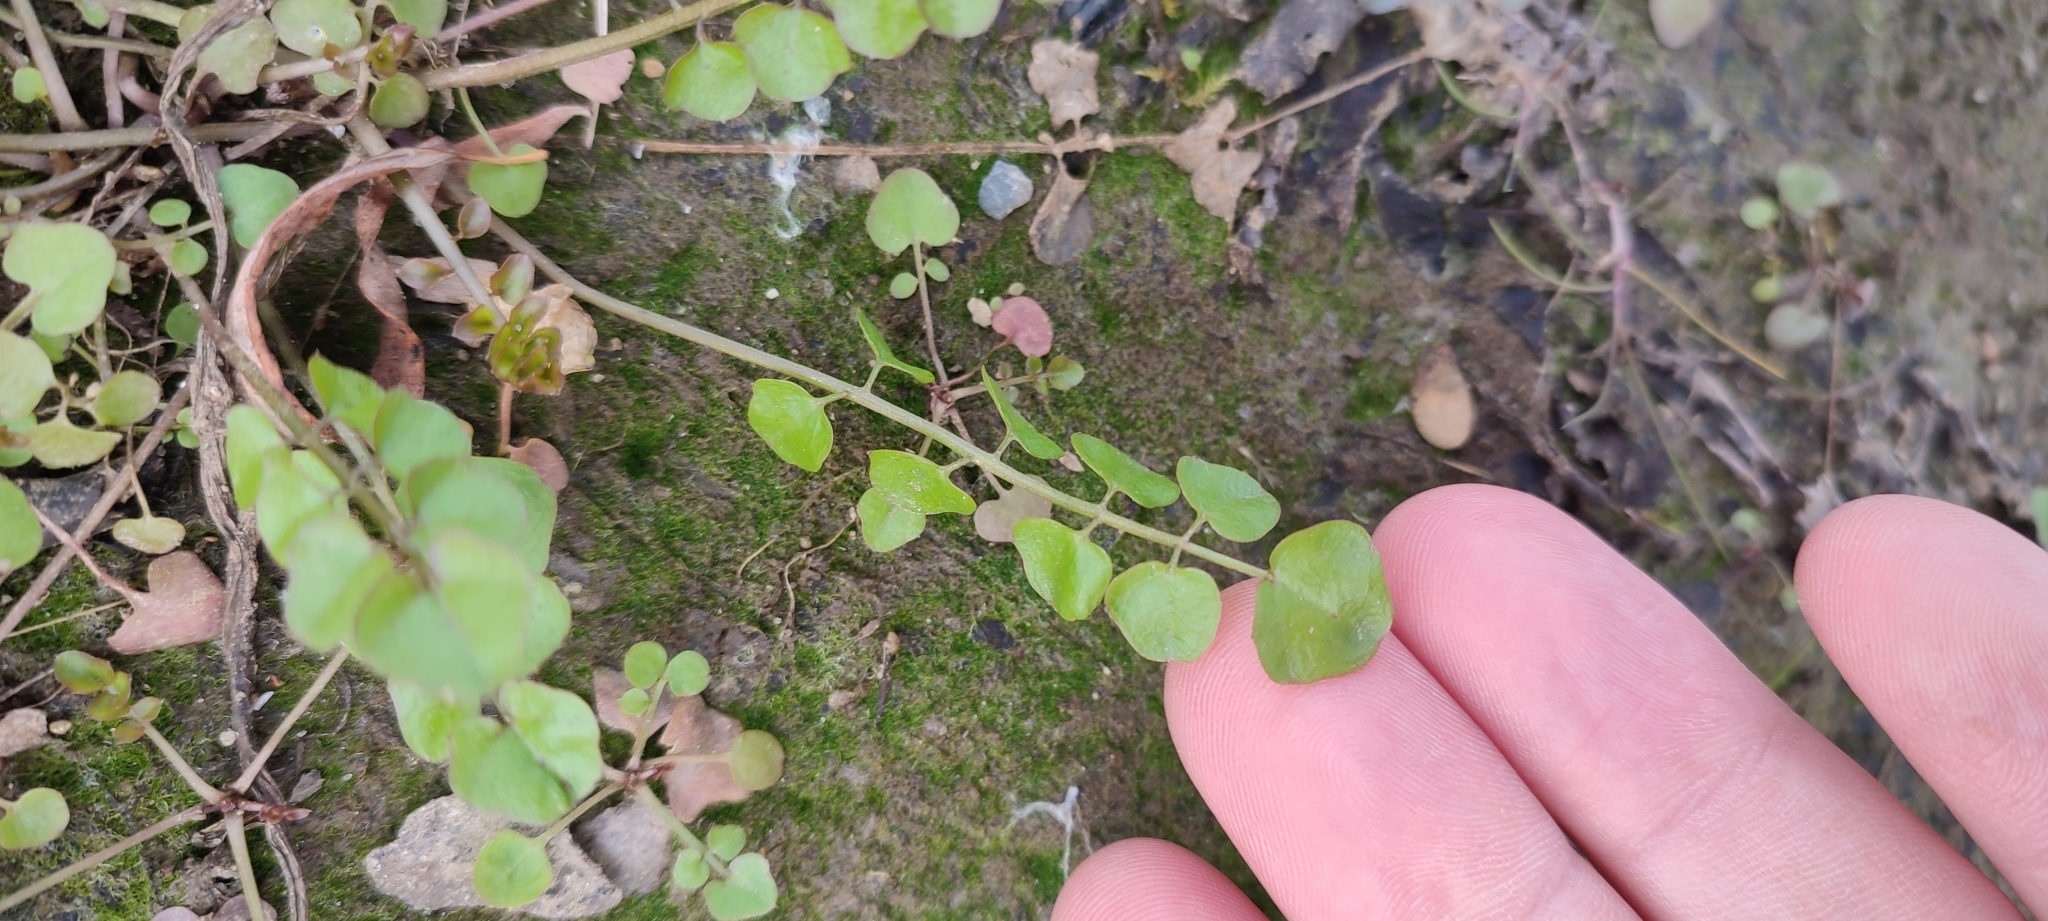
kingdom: Plantae
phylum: Tracheophyta
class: Magnoliopsida
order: Brassicales
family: Brassicaceae
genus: Cardamine
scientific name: Cardamine dentata
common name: Toothed bittercress
